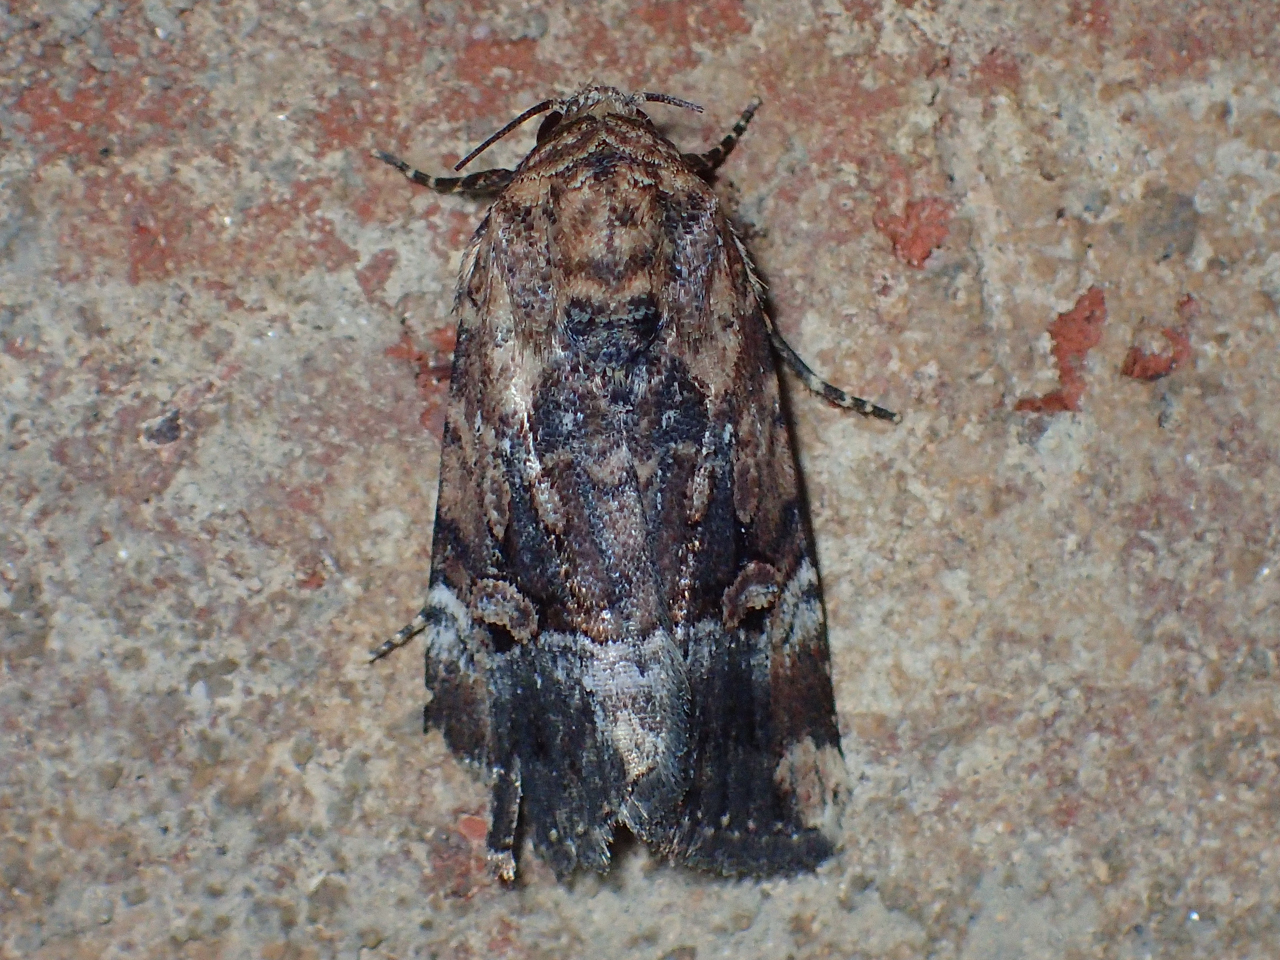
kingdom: Animalia
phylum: Arthropoda
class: Insecta
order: Lepidoptera
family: Noctuidae
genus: Elaphria
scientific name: Elaphria chalcedonia
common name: Chalcedony midget
